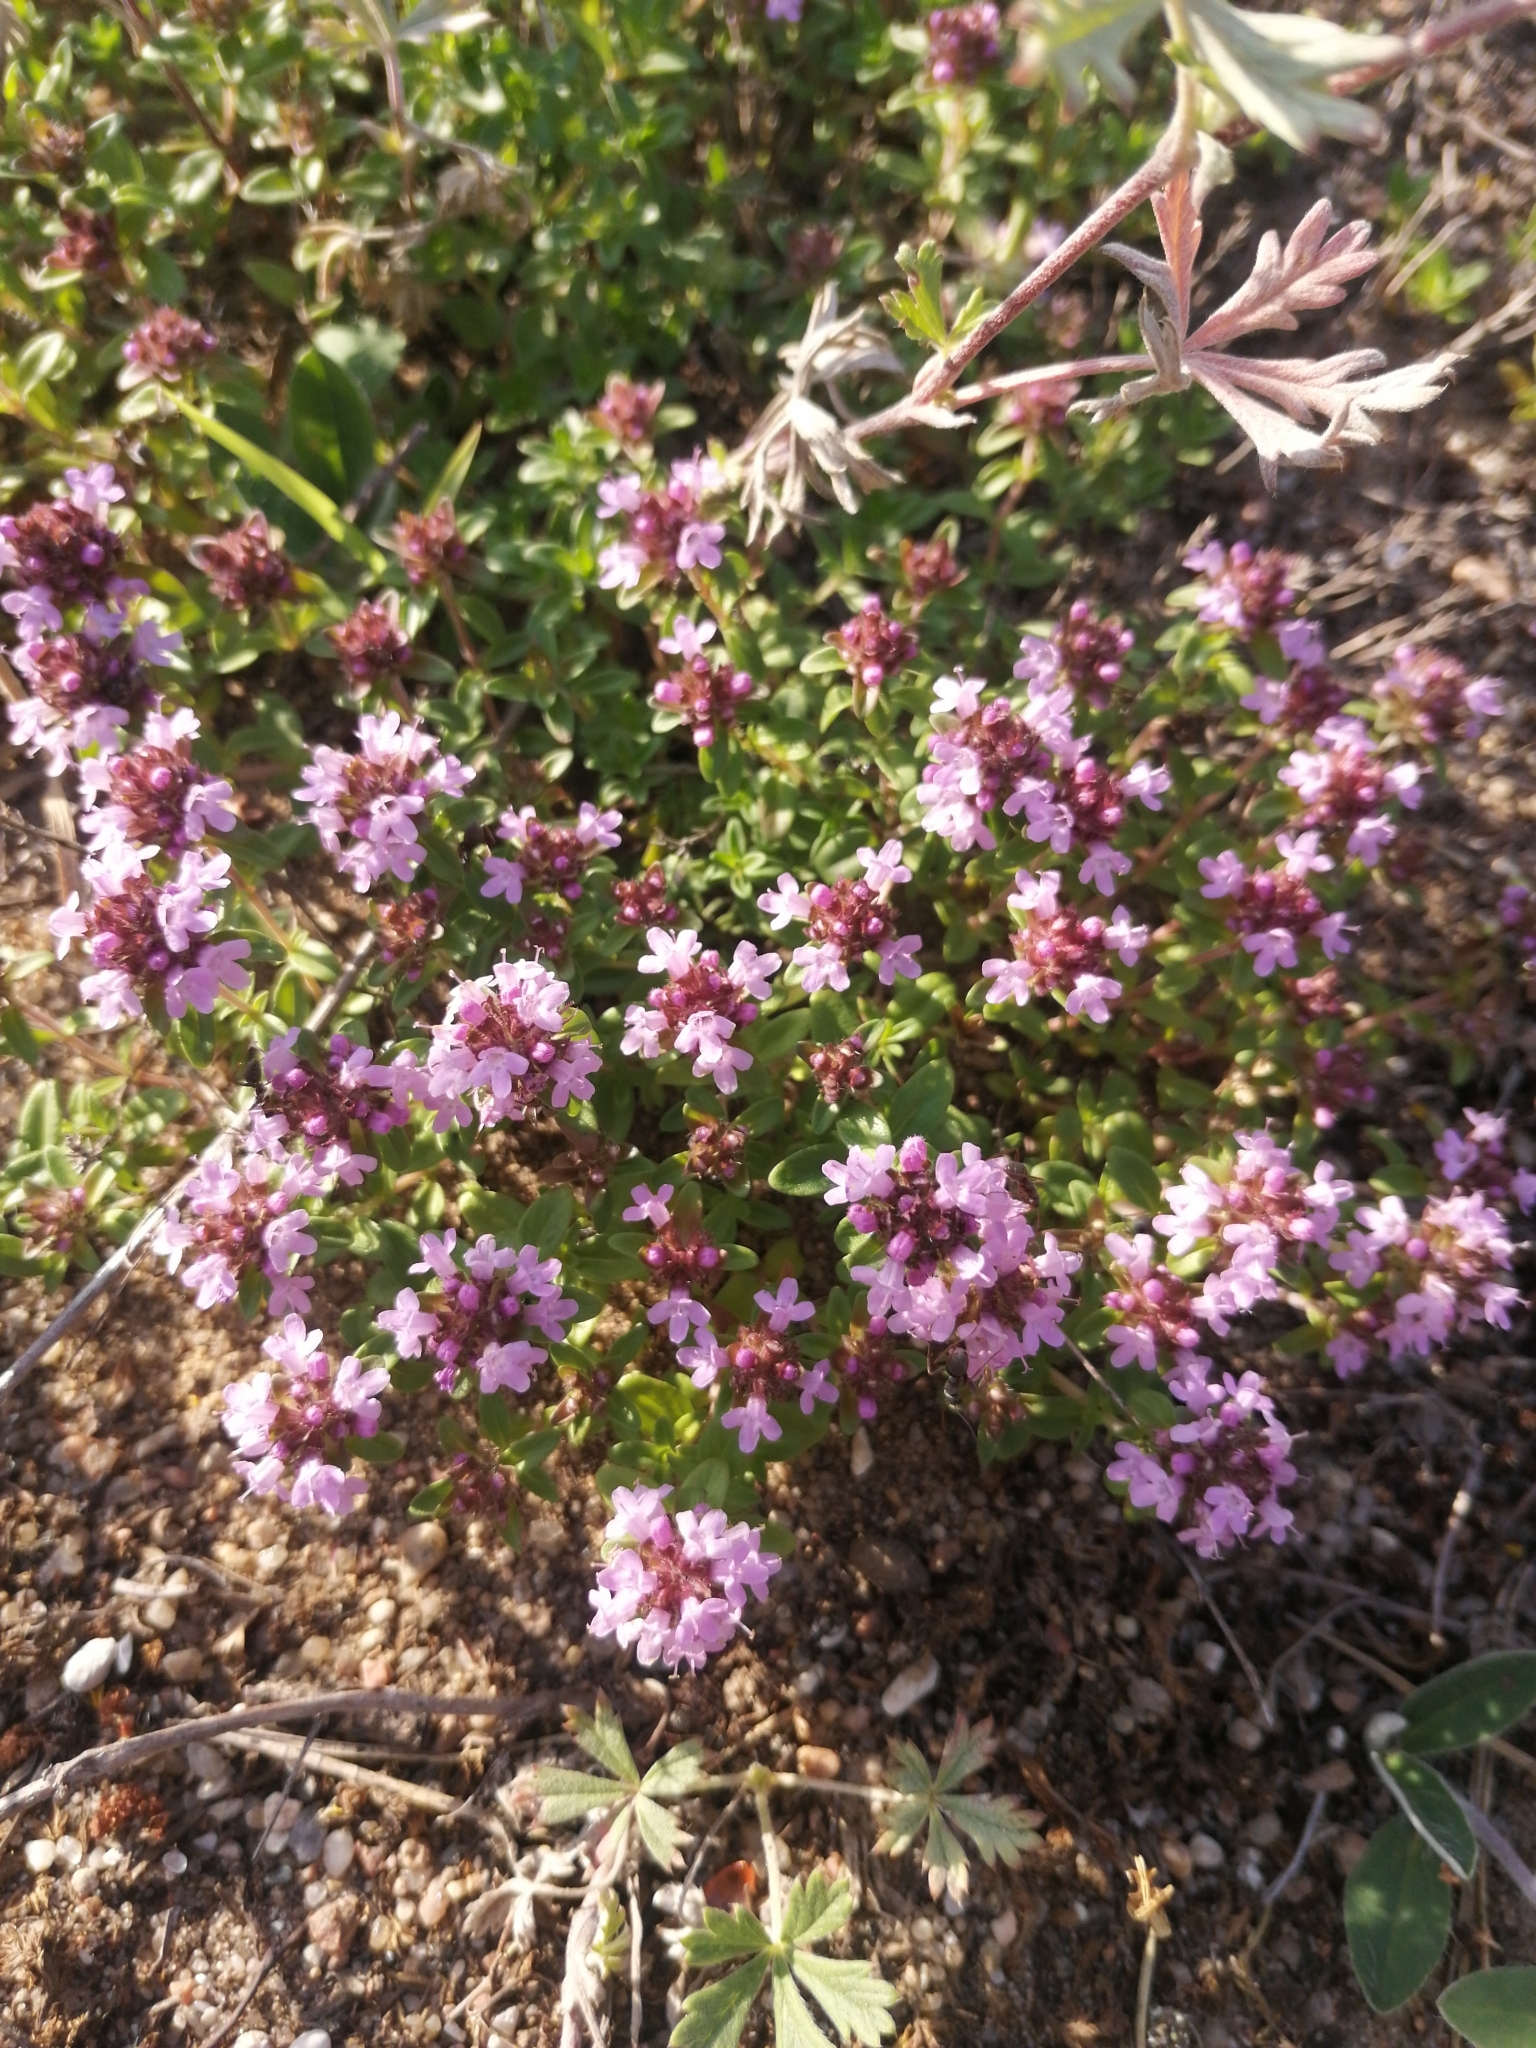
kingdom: Plantae
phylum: Tracheophyta
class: Magnoliopsida
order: Lamiales
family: Lamiaceae
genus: Thymus
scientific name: Thymus serpyllum
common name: Breckland thyme
